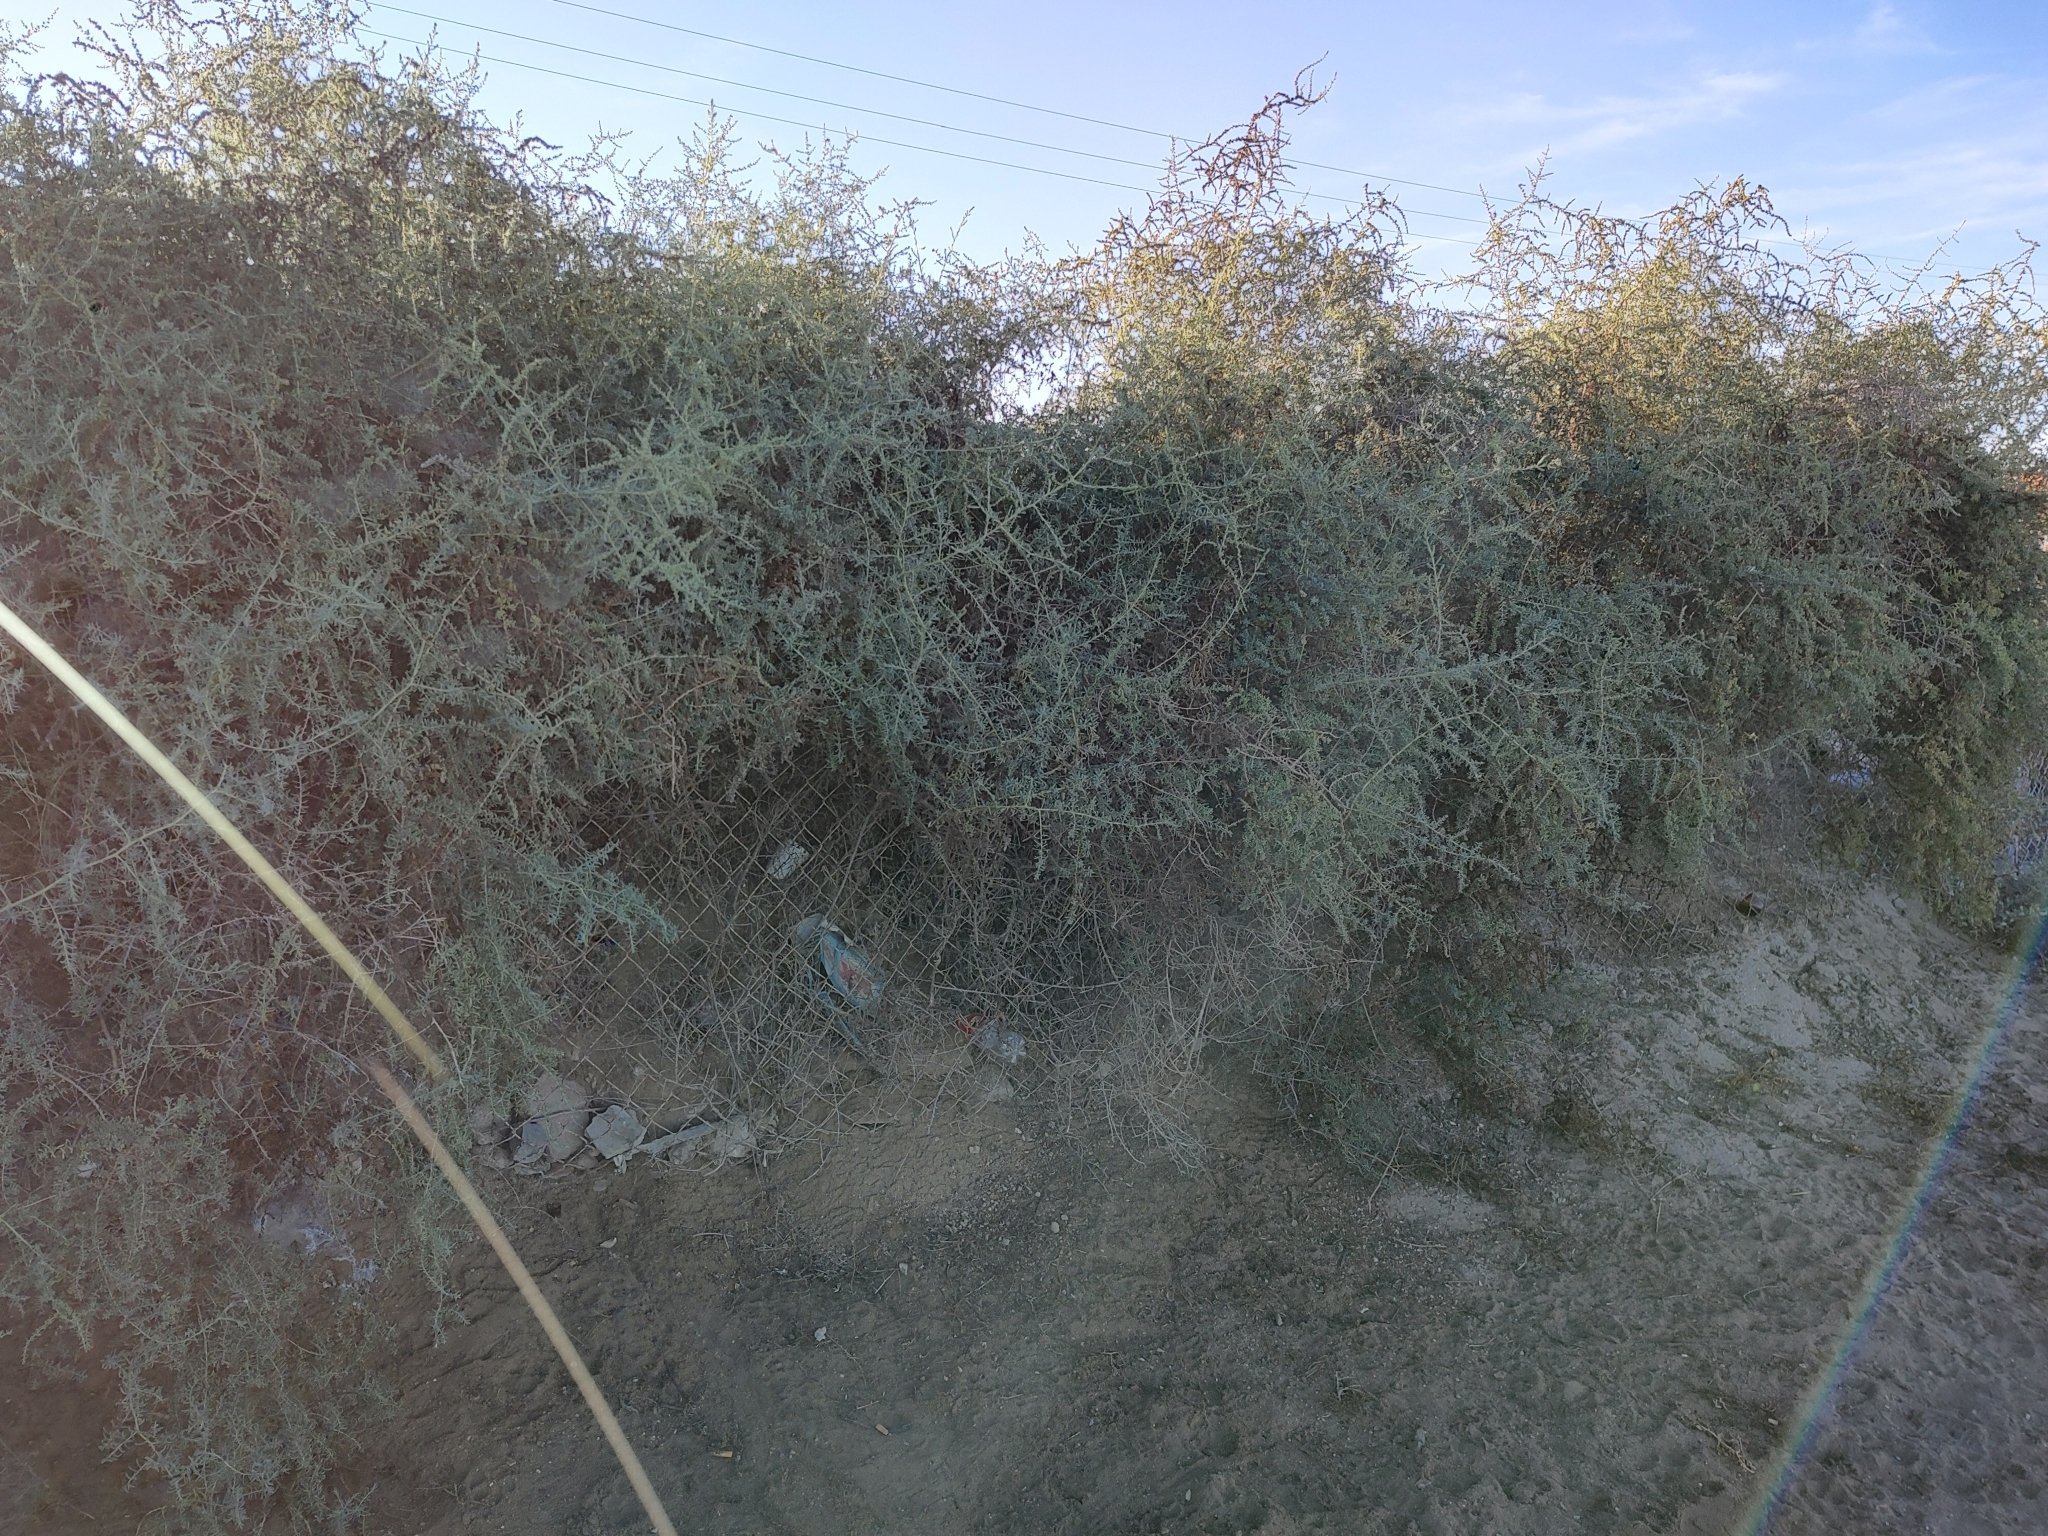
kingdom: Plantae
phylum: Tracheophyta
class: Magnoliopsida
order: Caryophyllales
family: Amaranthaceae
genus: Suaeda
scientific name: Suaeda nigra
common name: Bush seepweed
